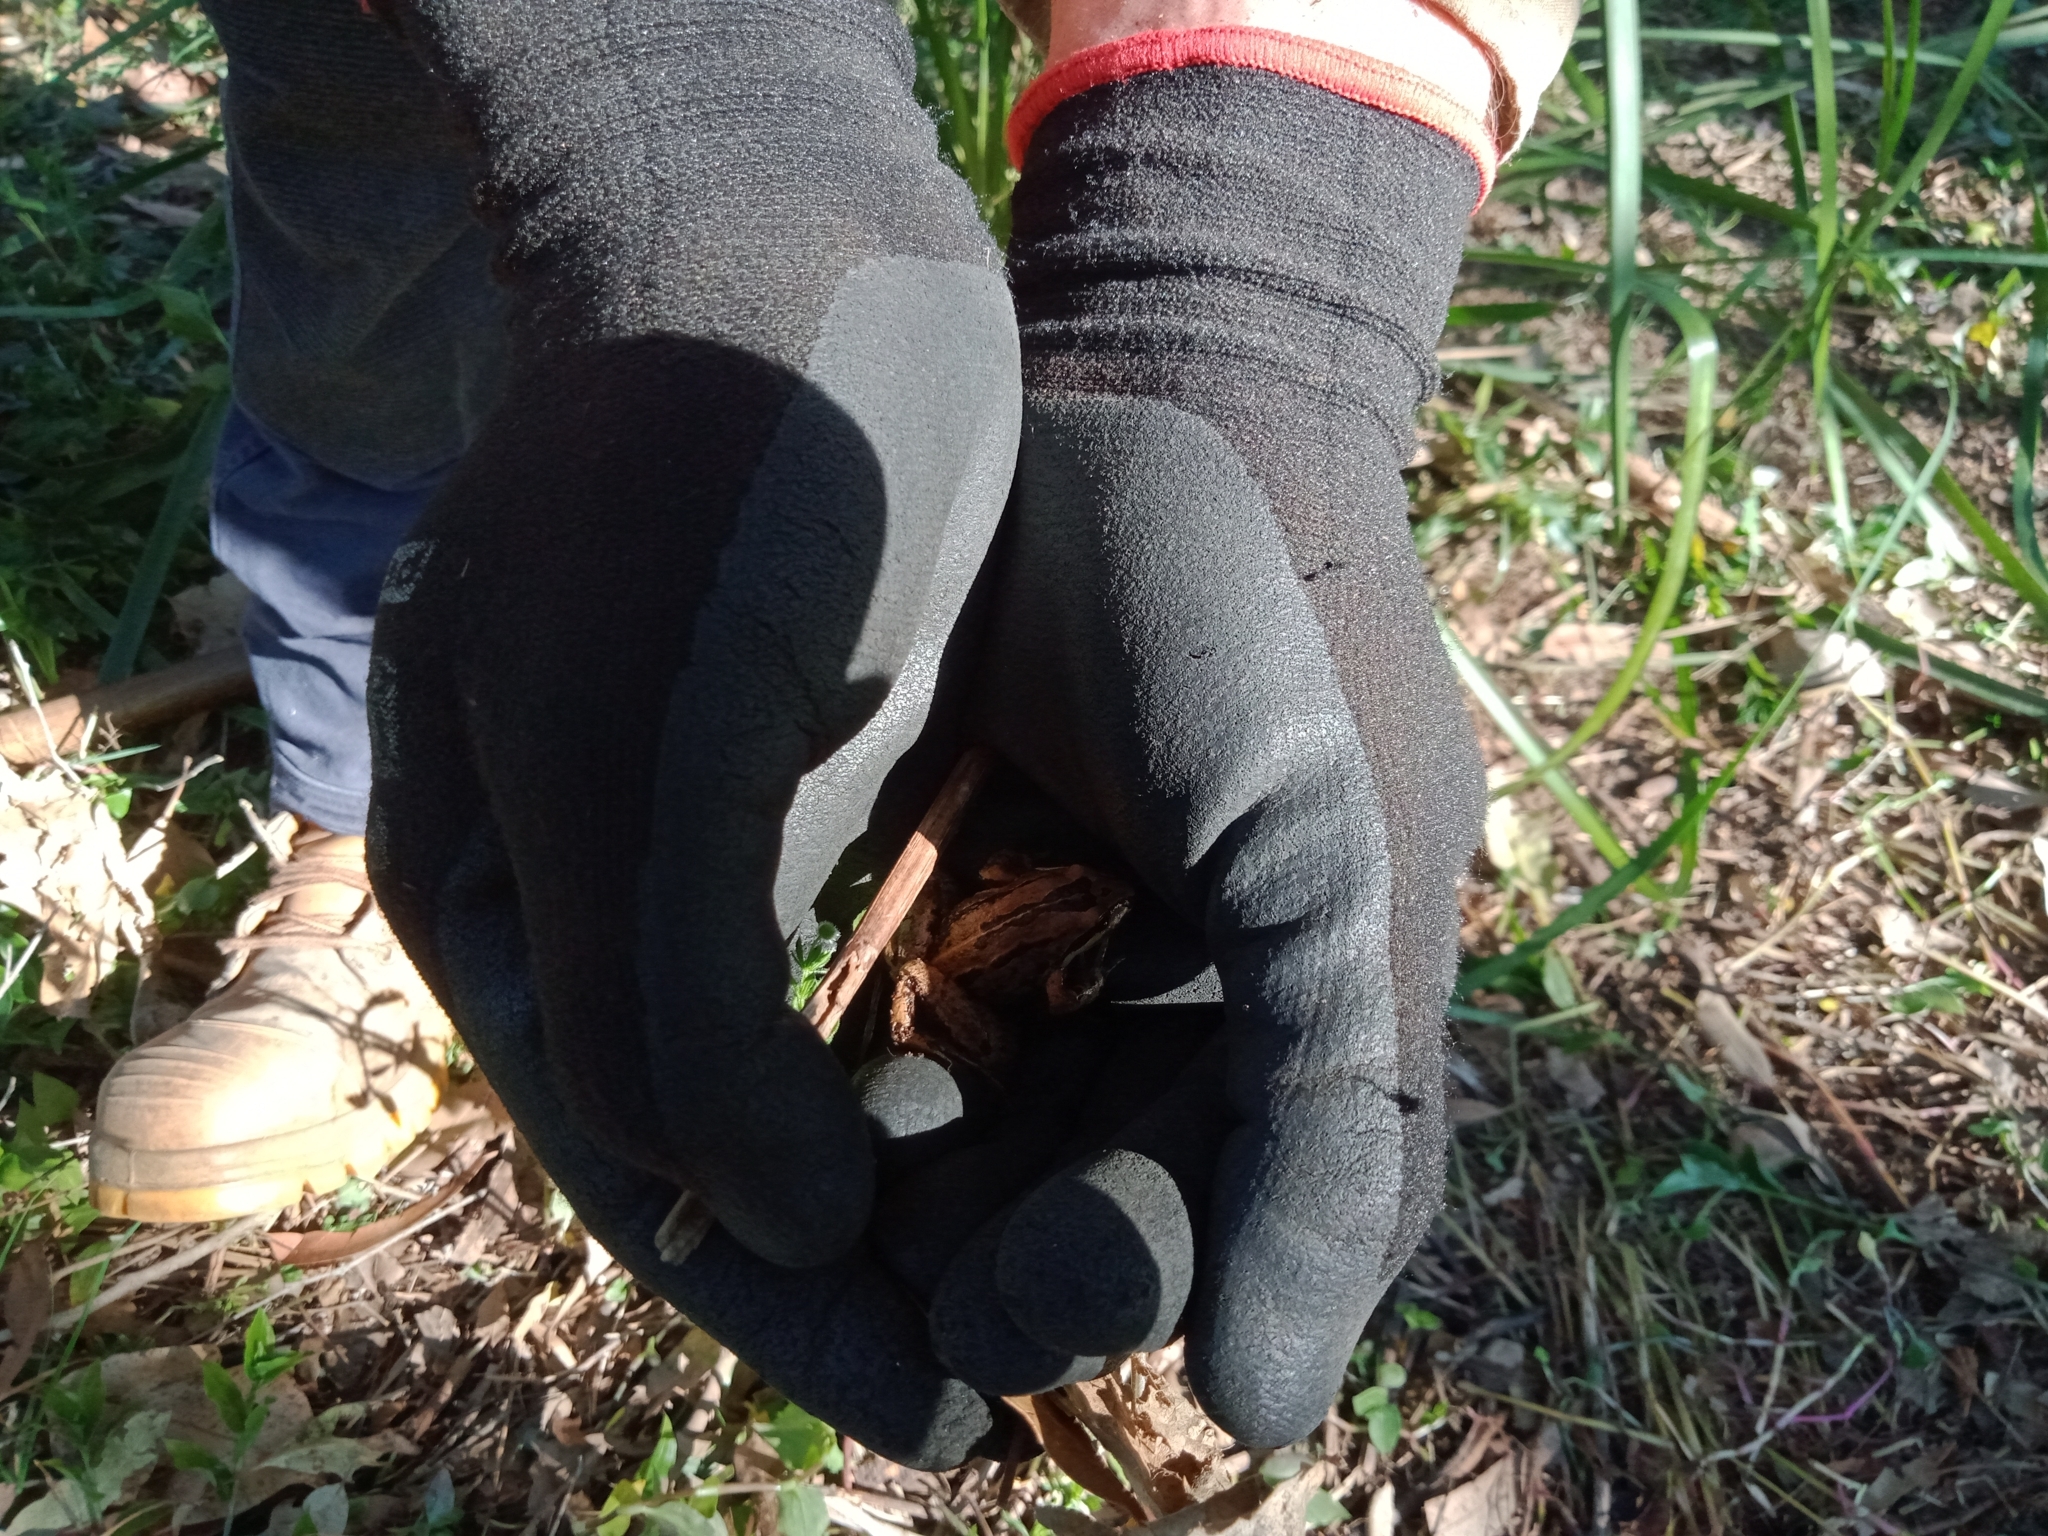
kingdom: Animalia
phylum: Chordata
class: Amphibia
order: Anura
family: Limnodynastidae
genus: Limnodynastes
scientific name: Limnodynastes peronii
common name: Brown frog
